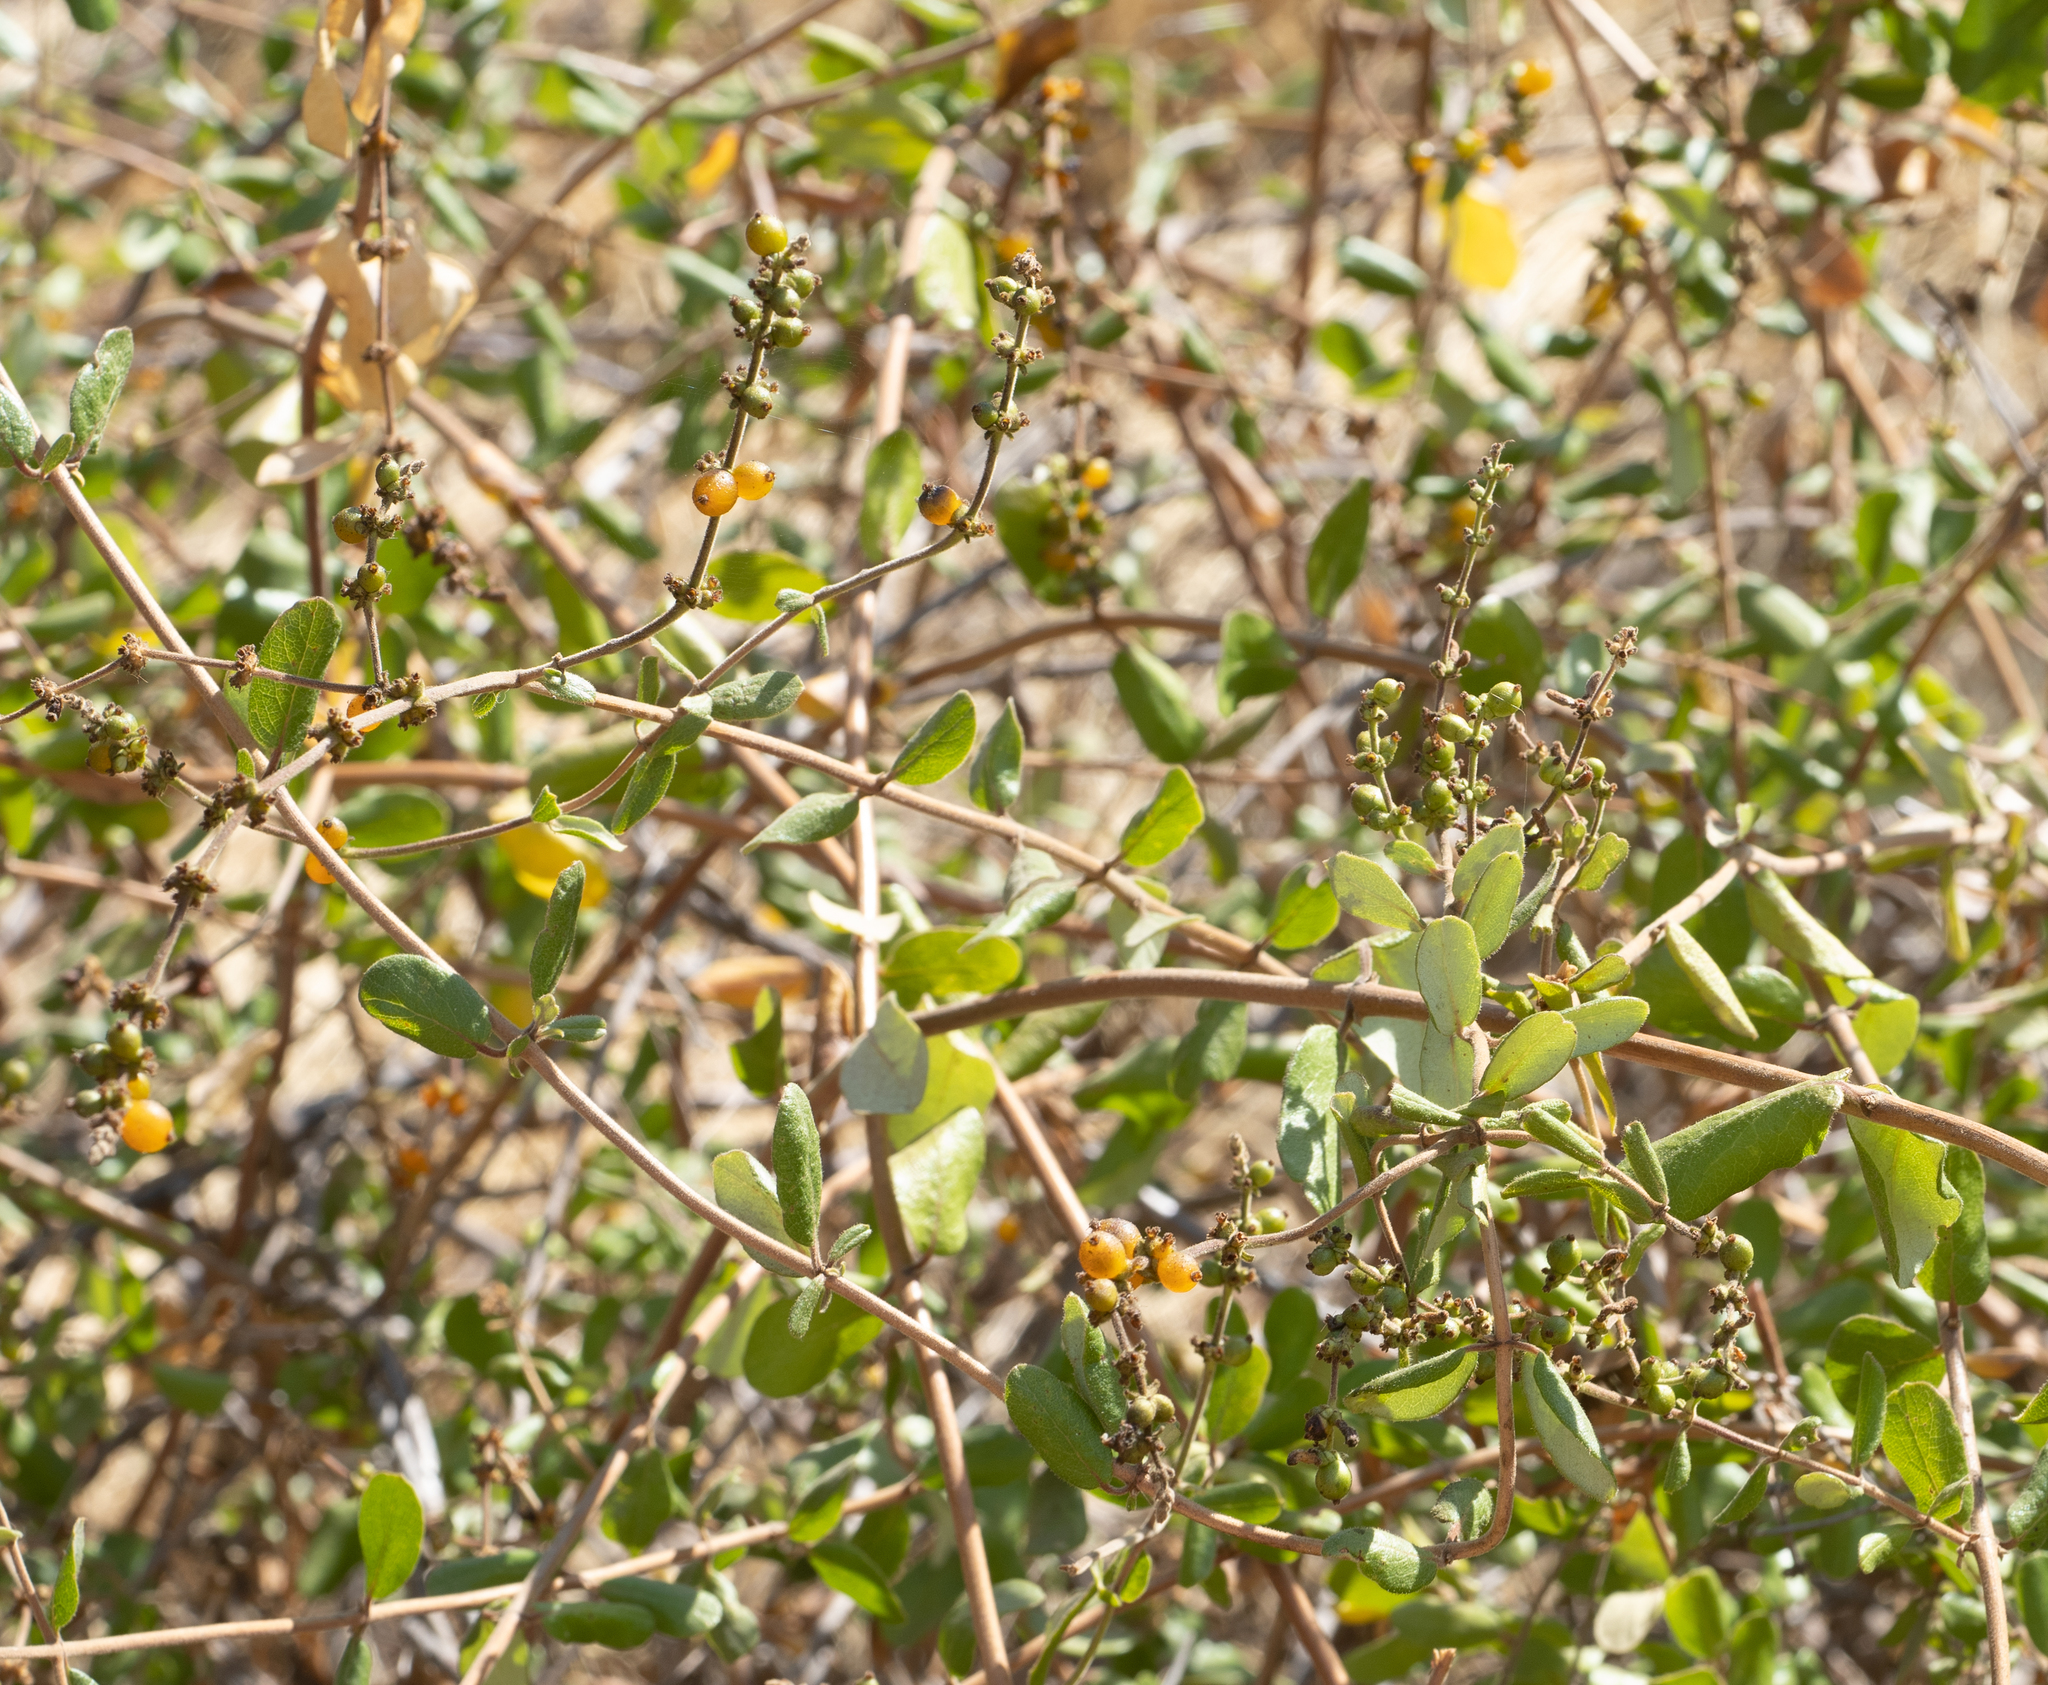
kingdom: Plantae
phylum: Tracheophyta
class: Magnoliopsida
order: Dipsacales
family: Caprifoliaceae
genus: Lonicera
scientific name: Lonicera subspicata
